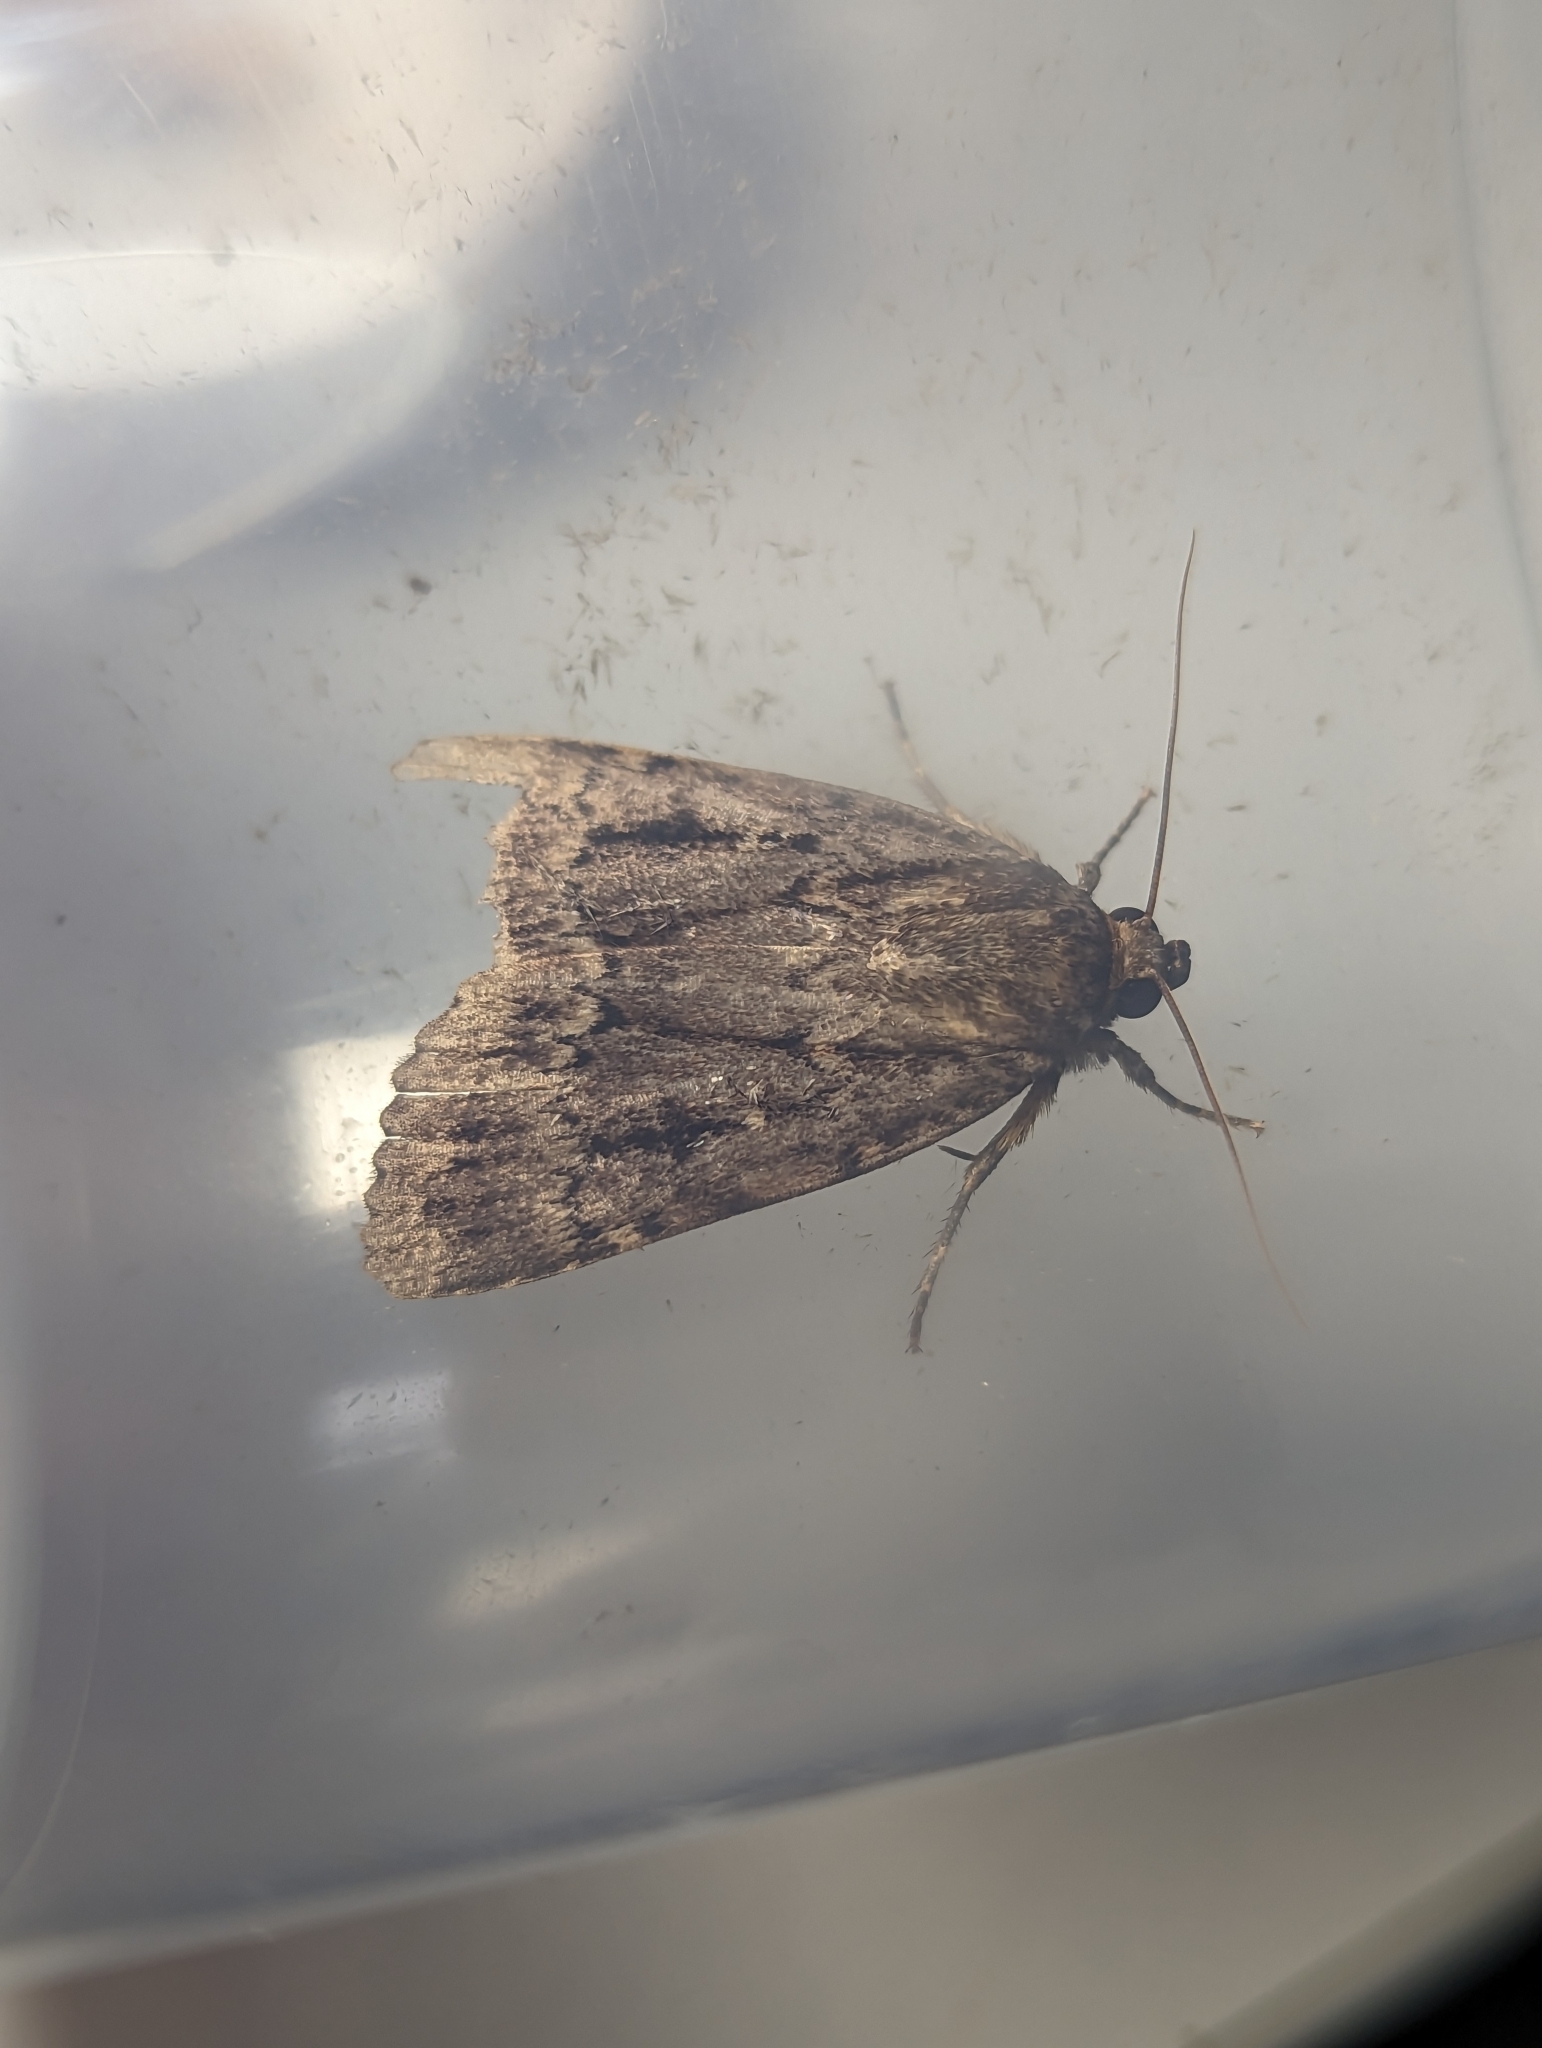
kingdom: Animalia
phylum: Arthropoda
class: Insecta
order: Lepidoptera
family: Noctuidae
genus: Amphipyra
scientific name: Amphipyra
